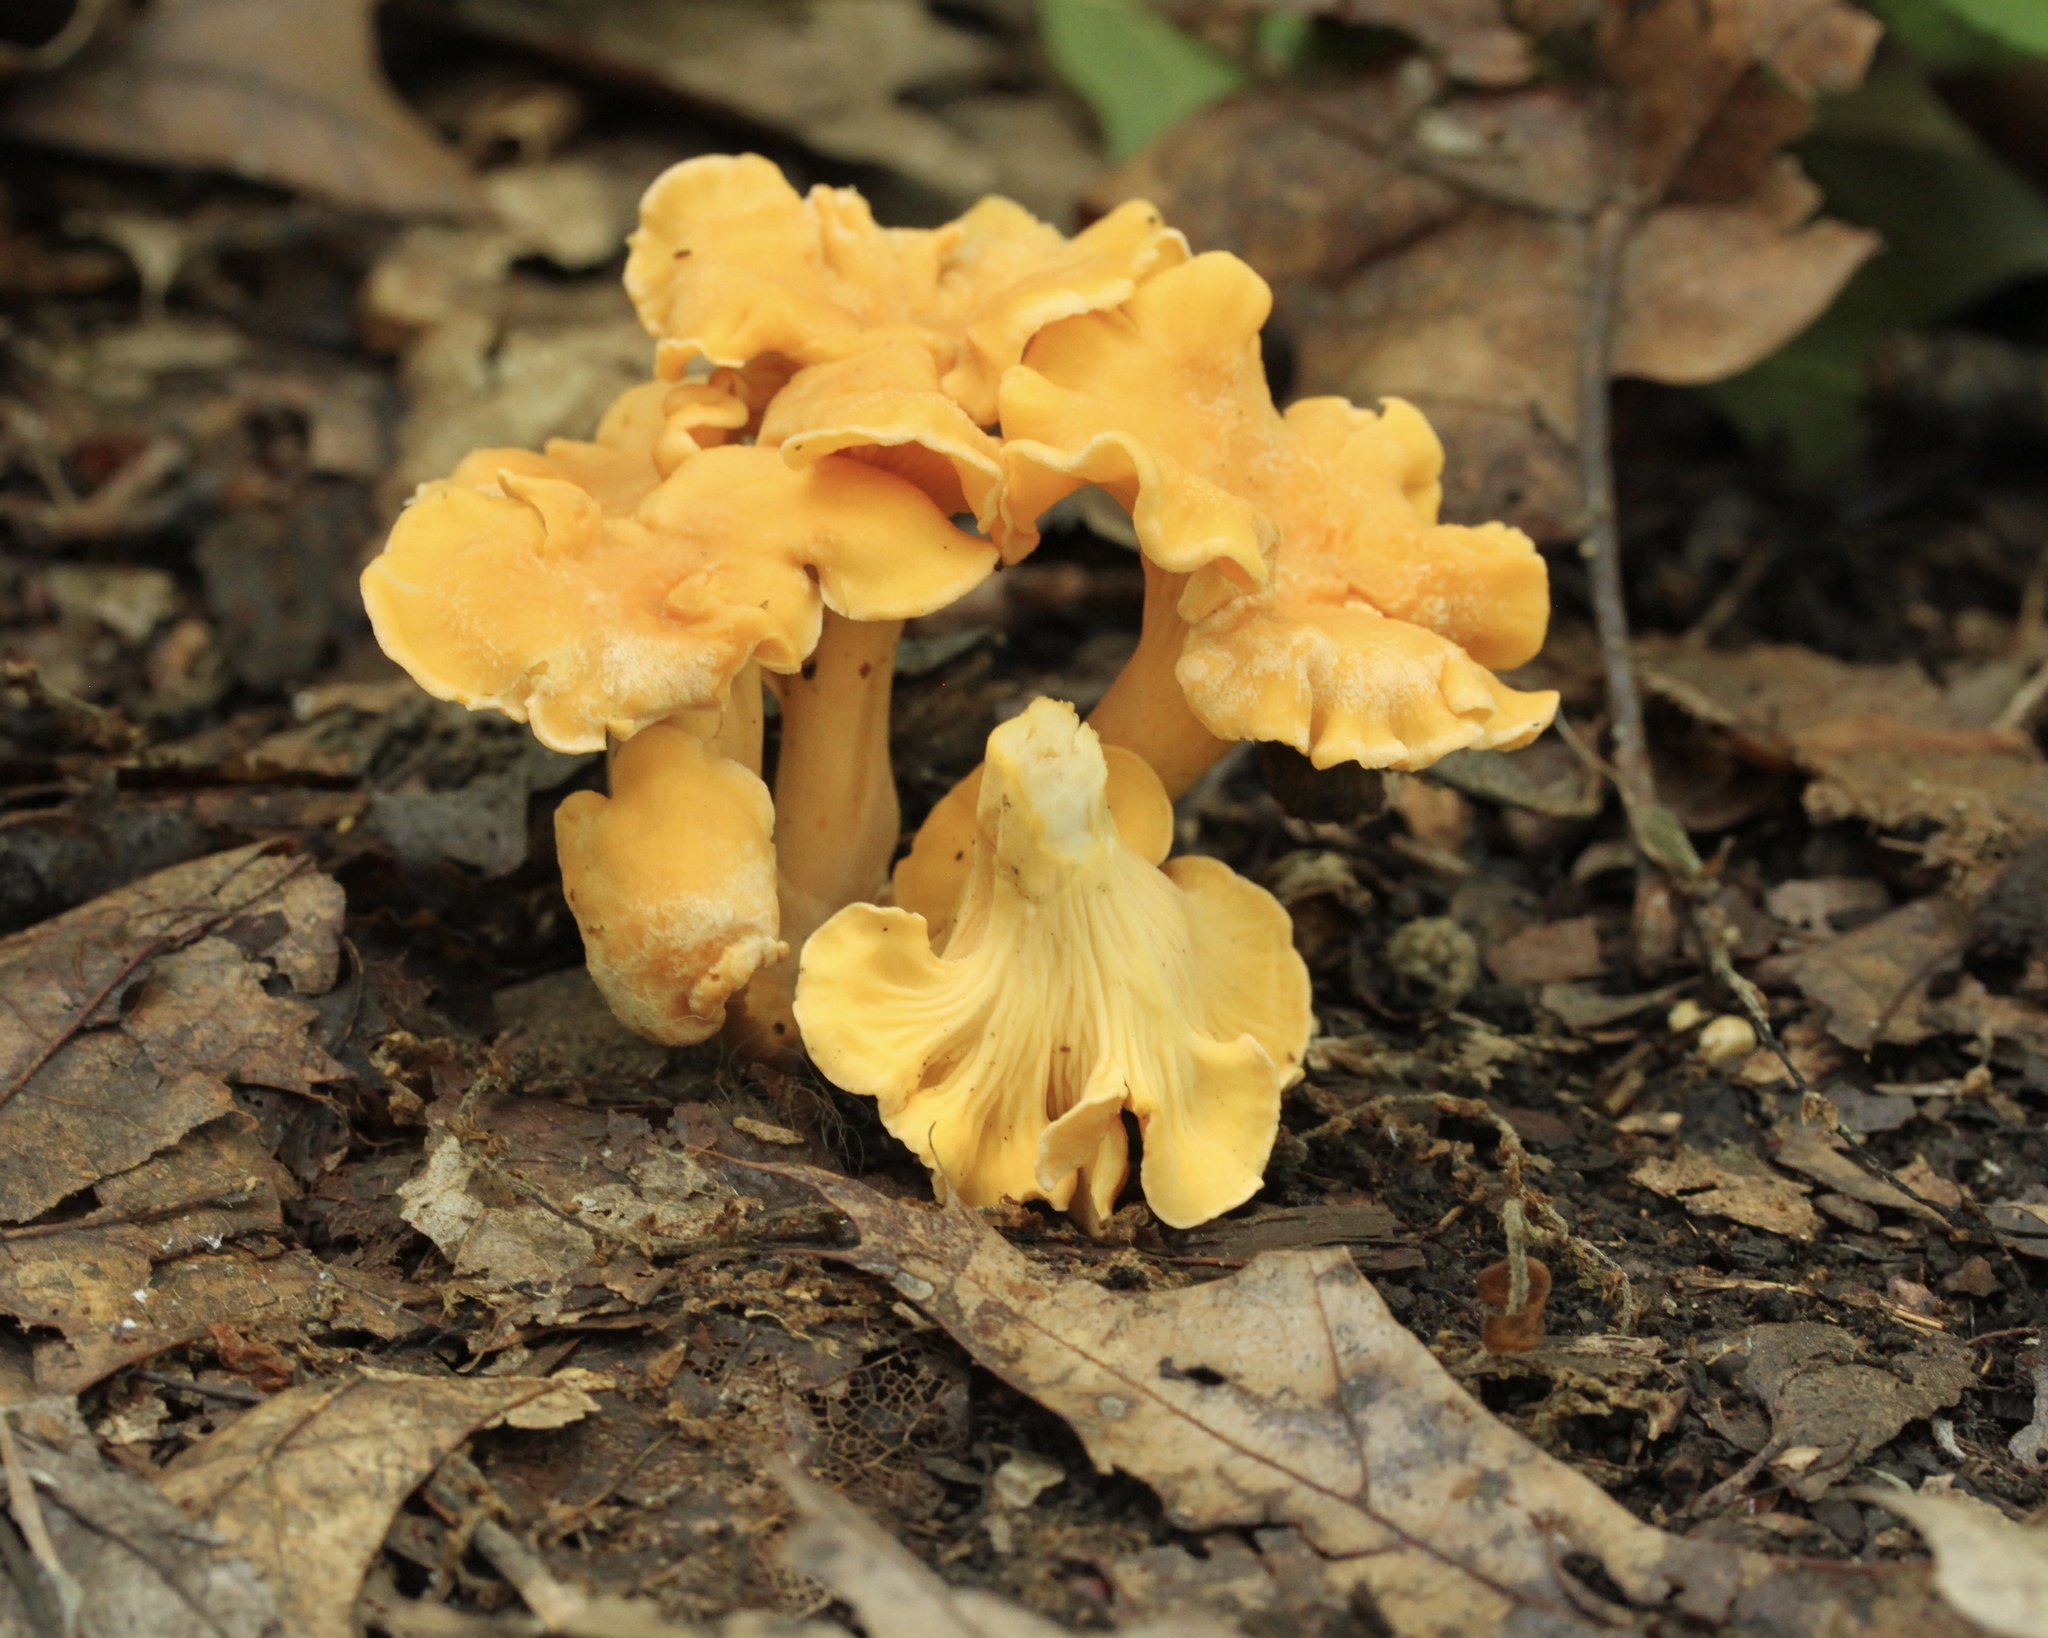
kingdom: Fungi
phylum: Basidiomycota
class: Agaricomycetes
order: Cantharellales
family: Hydnaceae
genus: Cantharellus
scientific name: Cantharellus lateritius
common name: Smooth chanterelle
